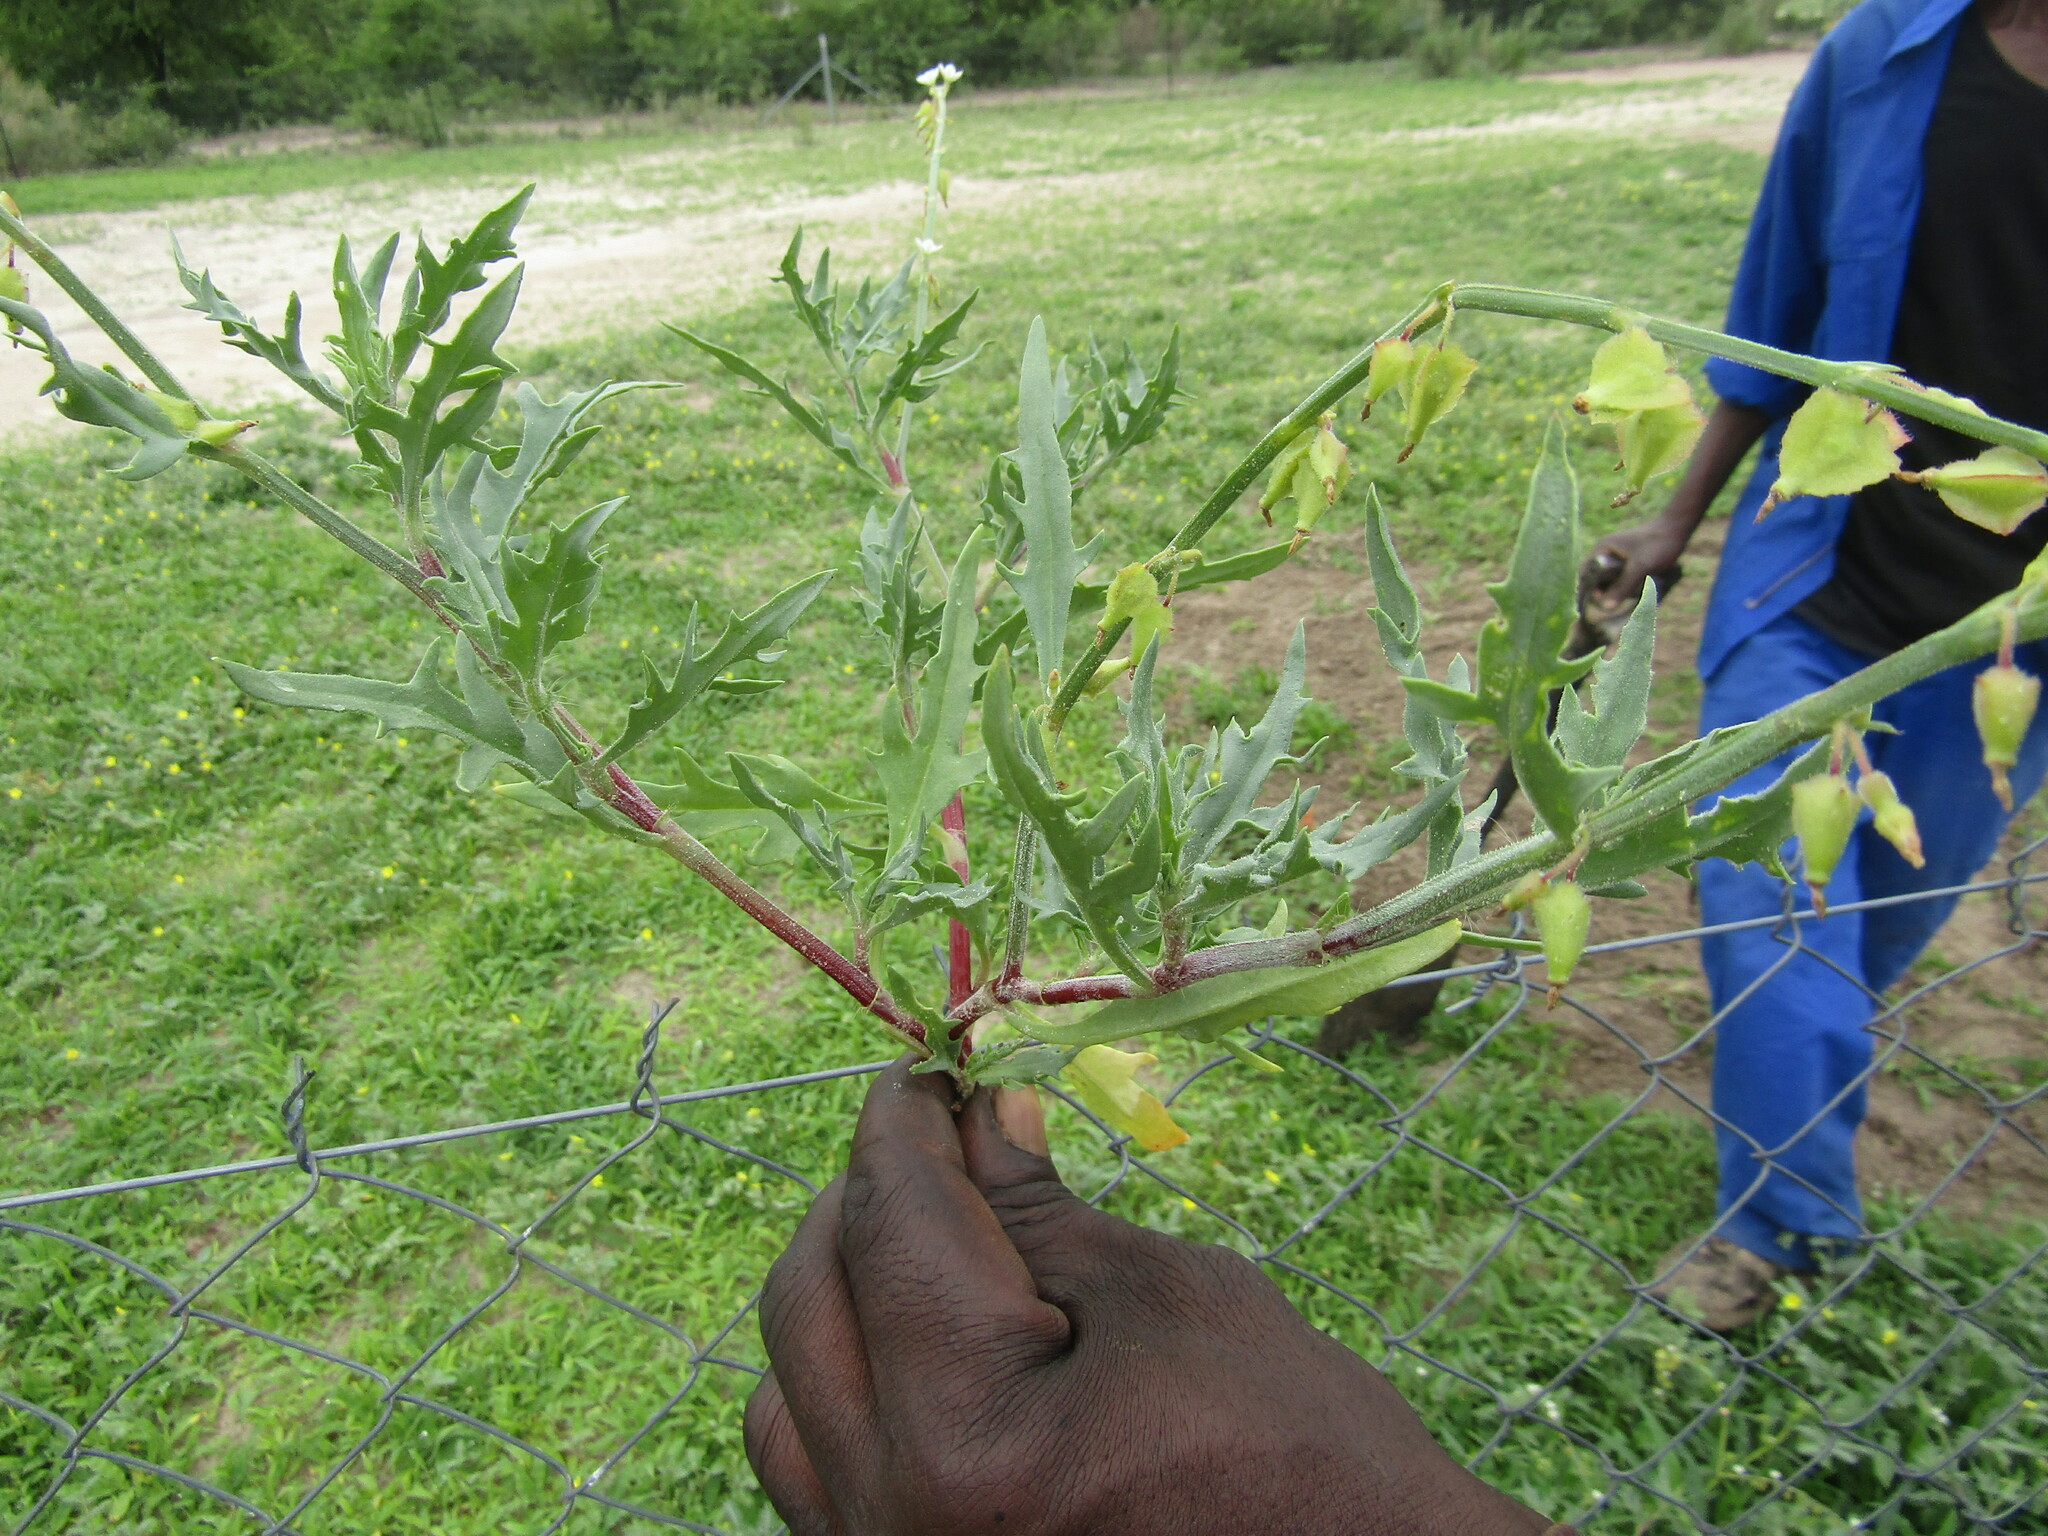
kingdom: Plantae
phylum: Tracheophyta
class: Magnoliopsida
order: Caryophyllales
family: Polygonaceae
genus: Oxygonum
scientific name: Oxygonum alatum
